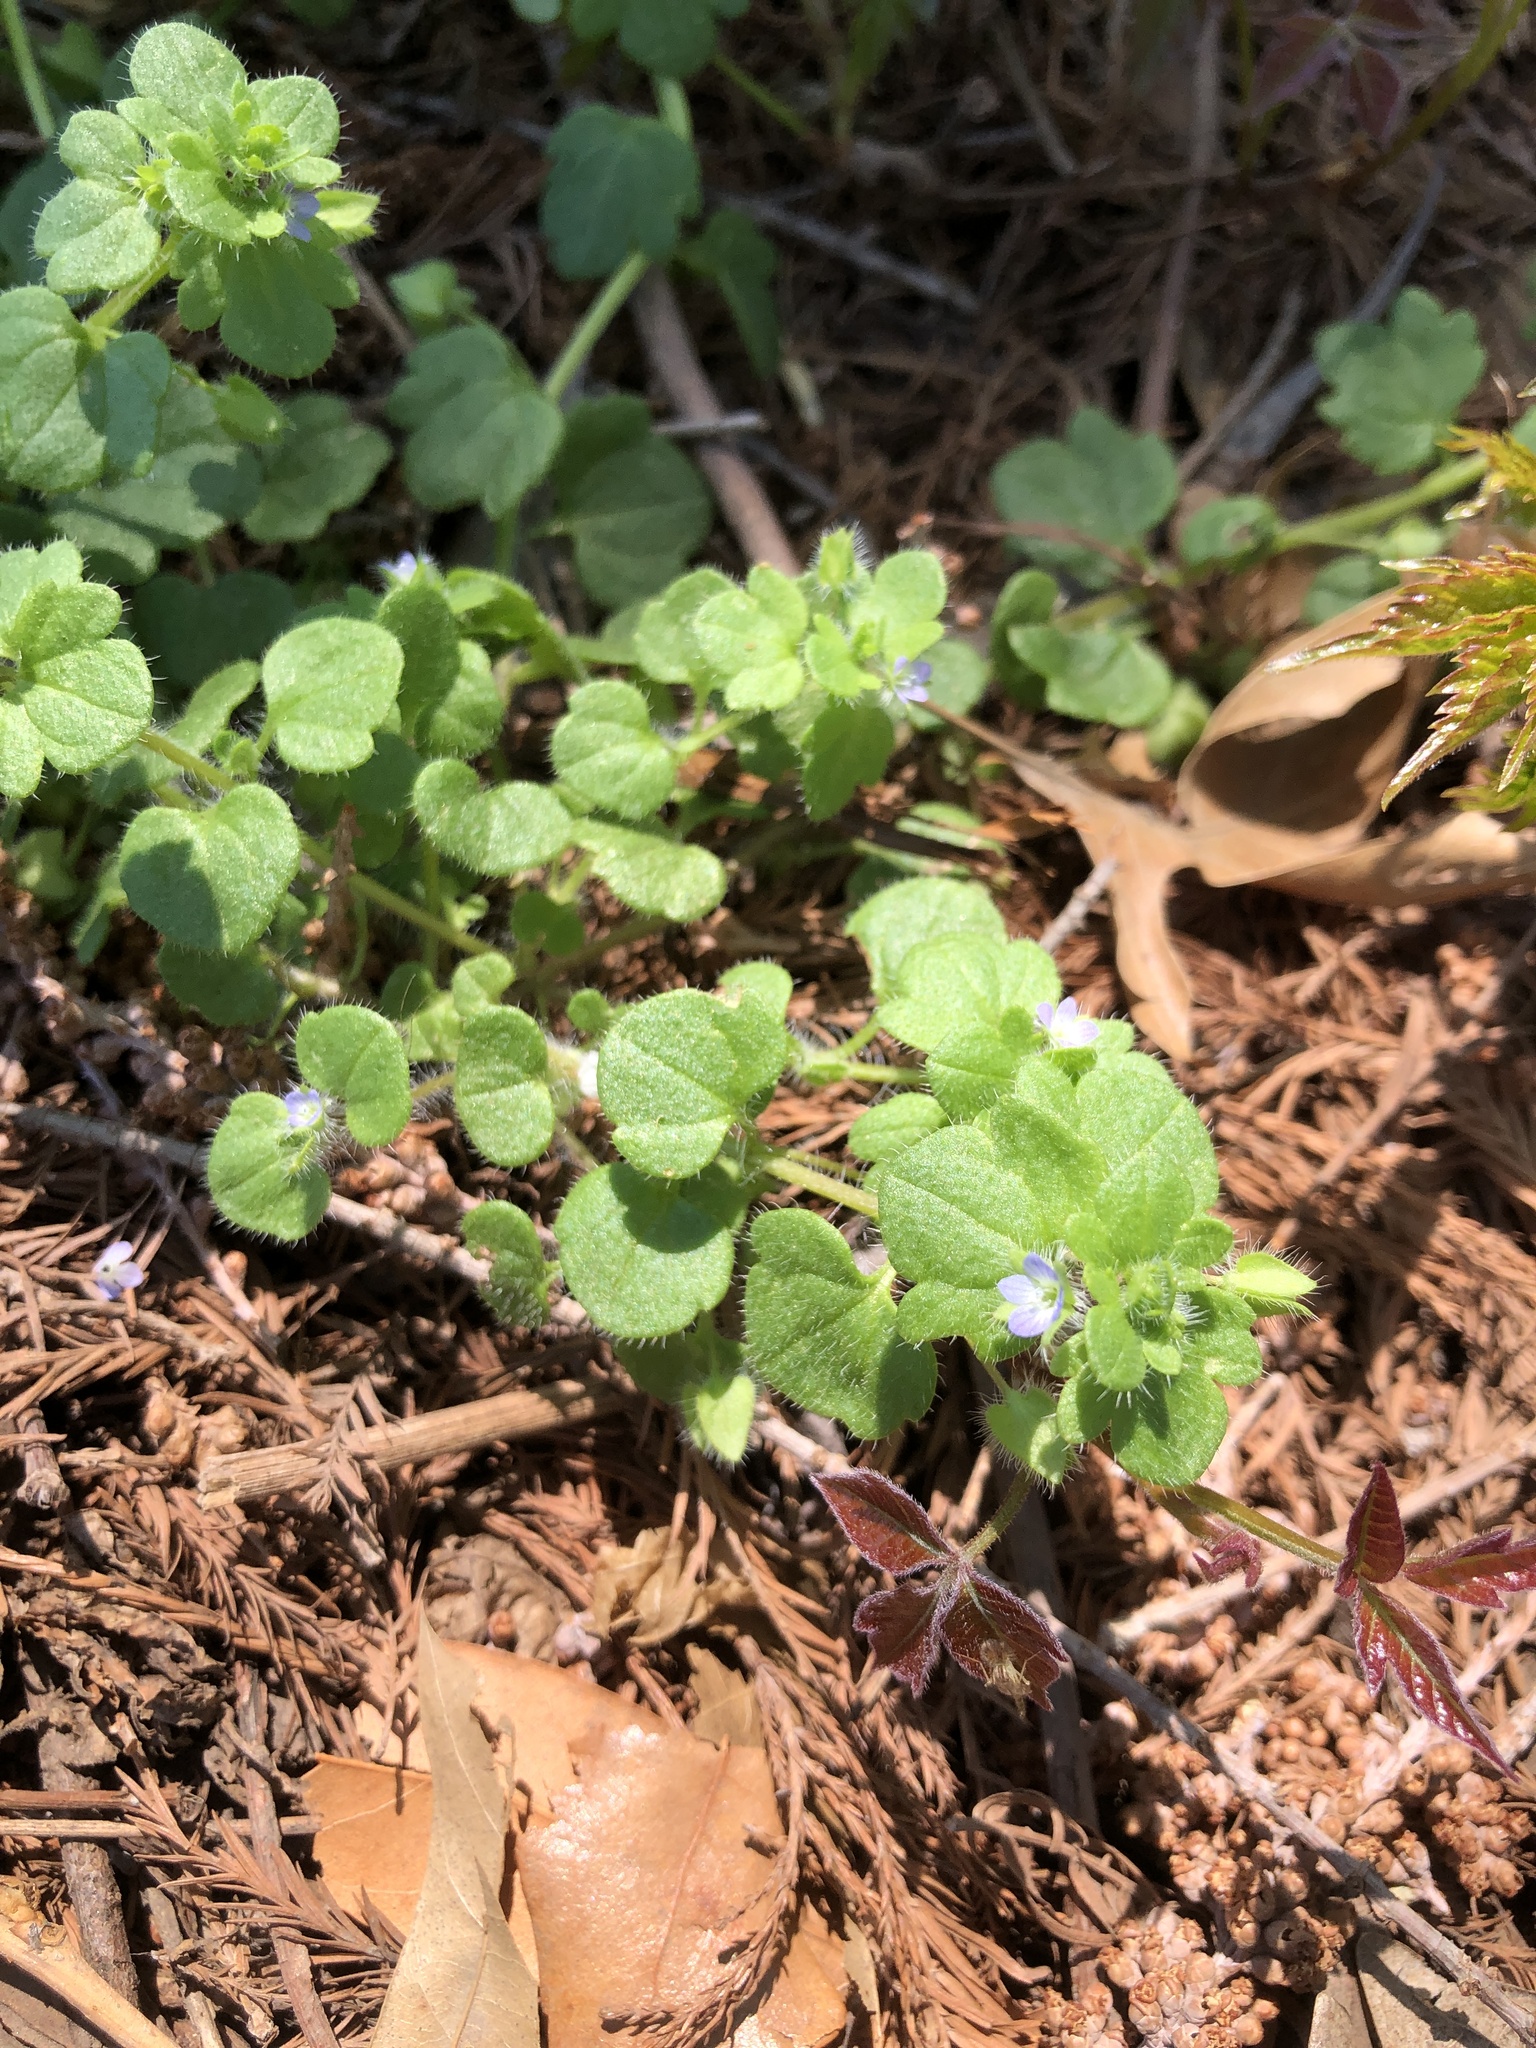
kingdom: Plantae
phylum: Tracheophyta
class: Magnoliopsida
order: Lamiales
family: Plantaginaceae
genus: Veronica
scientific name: Veronica hederifolia
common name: Ivy-leaved speedwell
